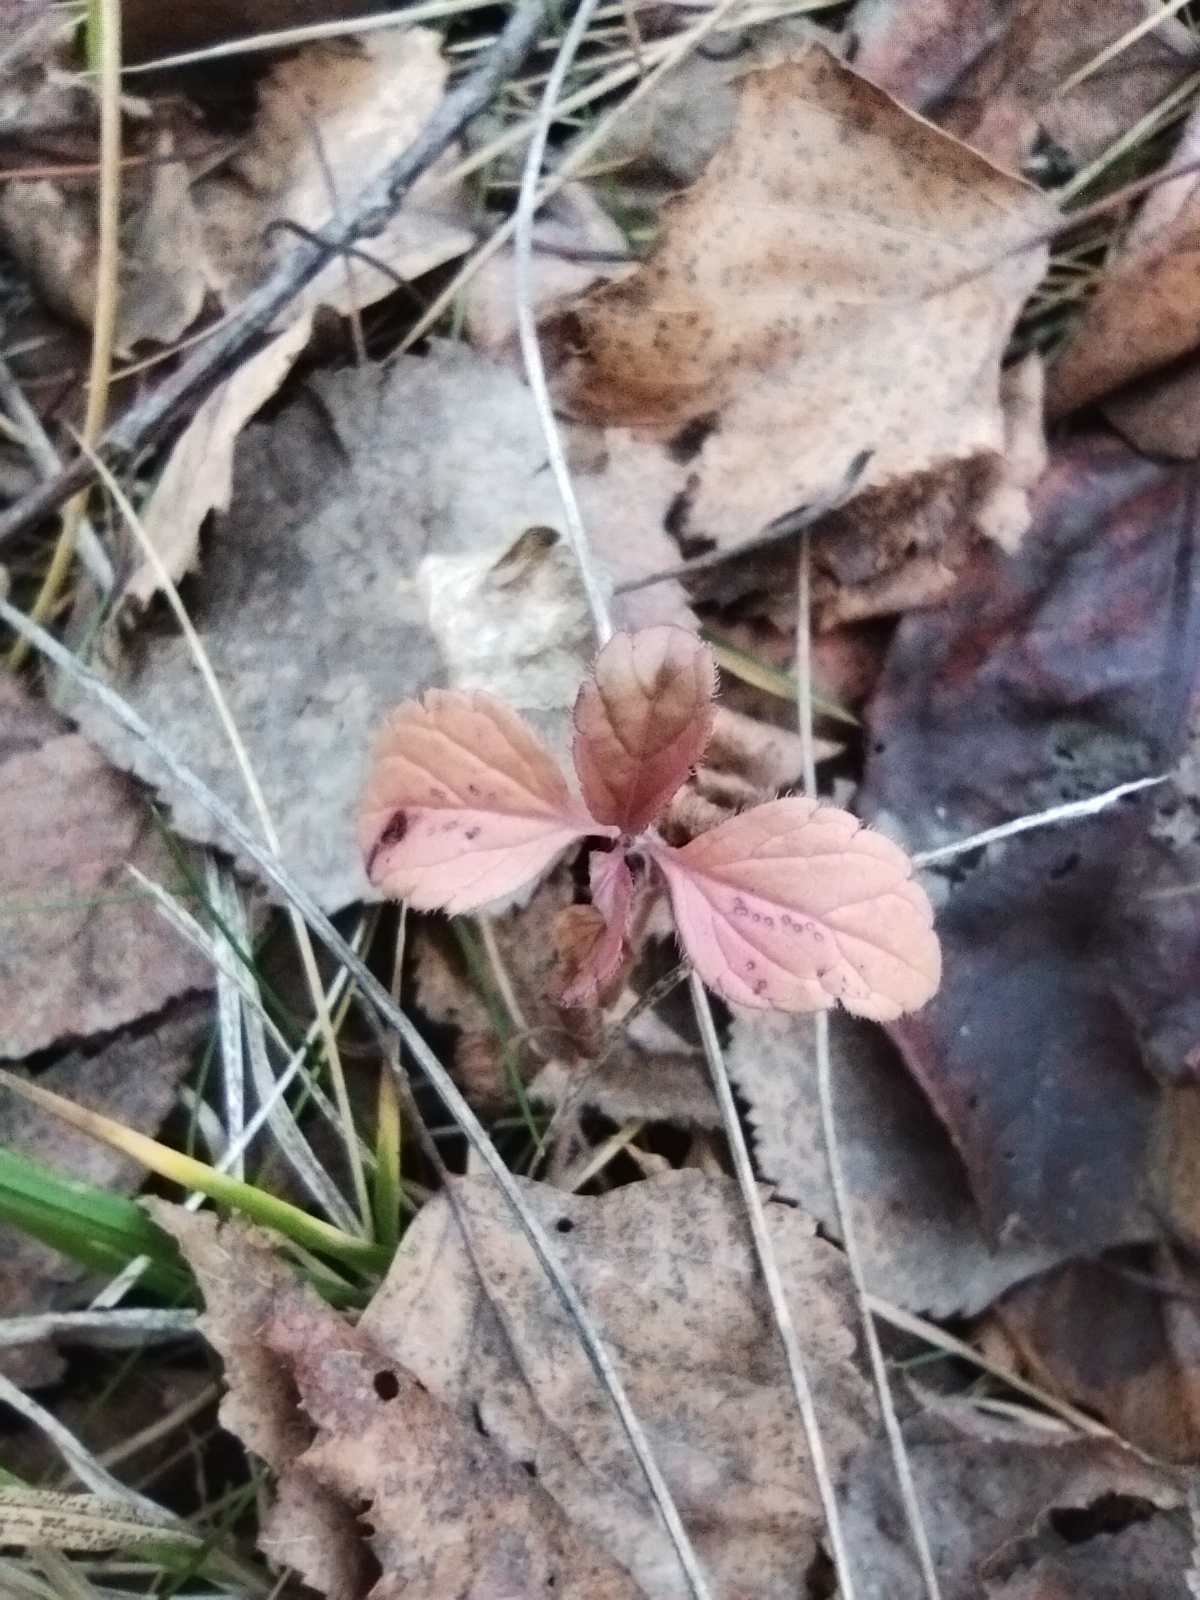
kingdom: Plantae
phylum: Tracheophyta
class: Magnoliopsida
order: Lamiales
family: Plantaginaceae
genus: Veronica
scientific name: Veronica chamaedrys
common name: Germander speedwell
